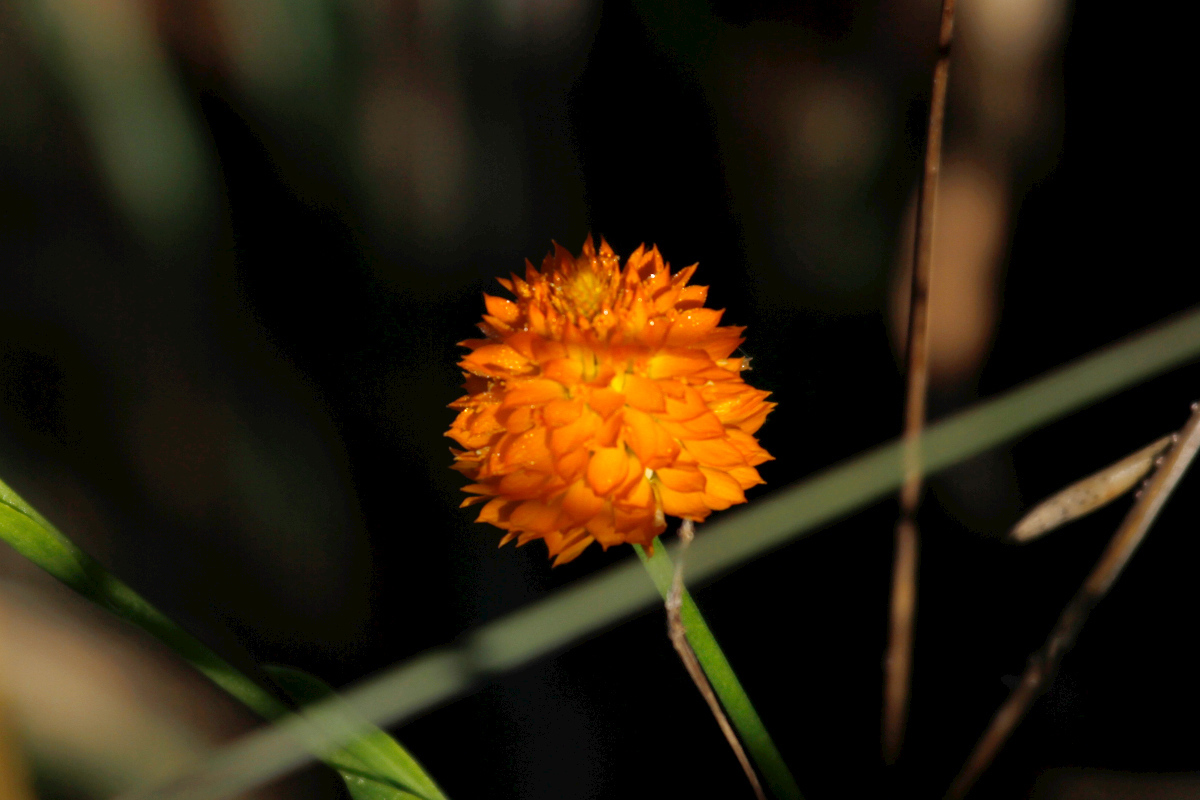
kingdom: Plantae
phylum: Tracheophyta
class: Magnoliopsida
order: Fabales
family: Polygalaceae
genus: Polygala
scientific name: Polygala lutea
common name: Orange milkwort
